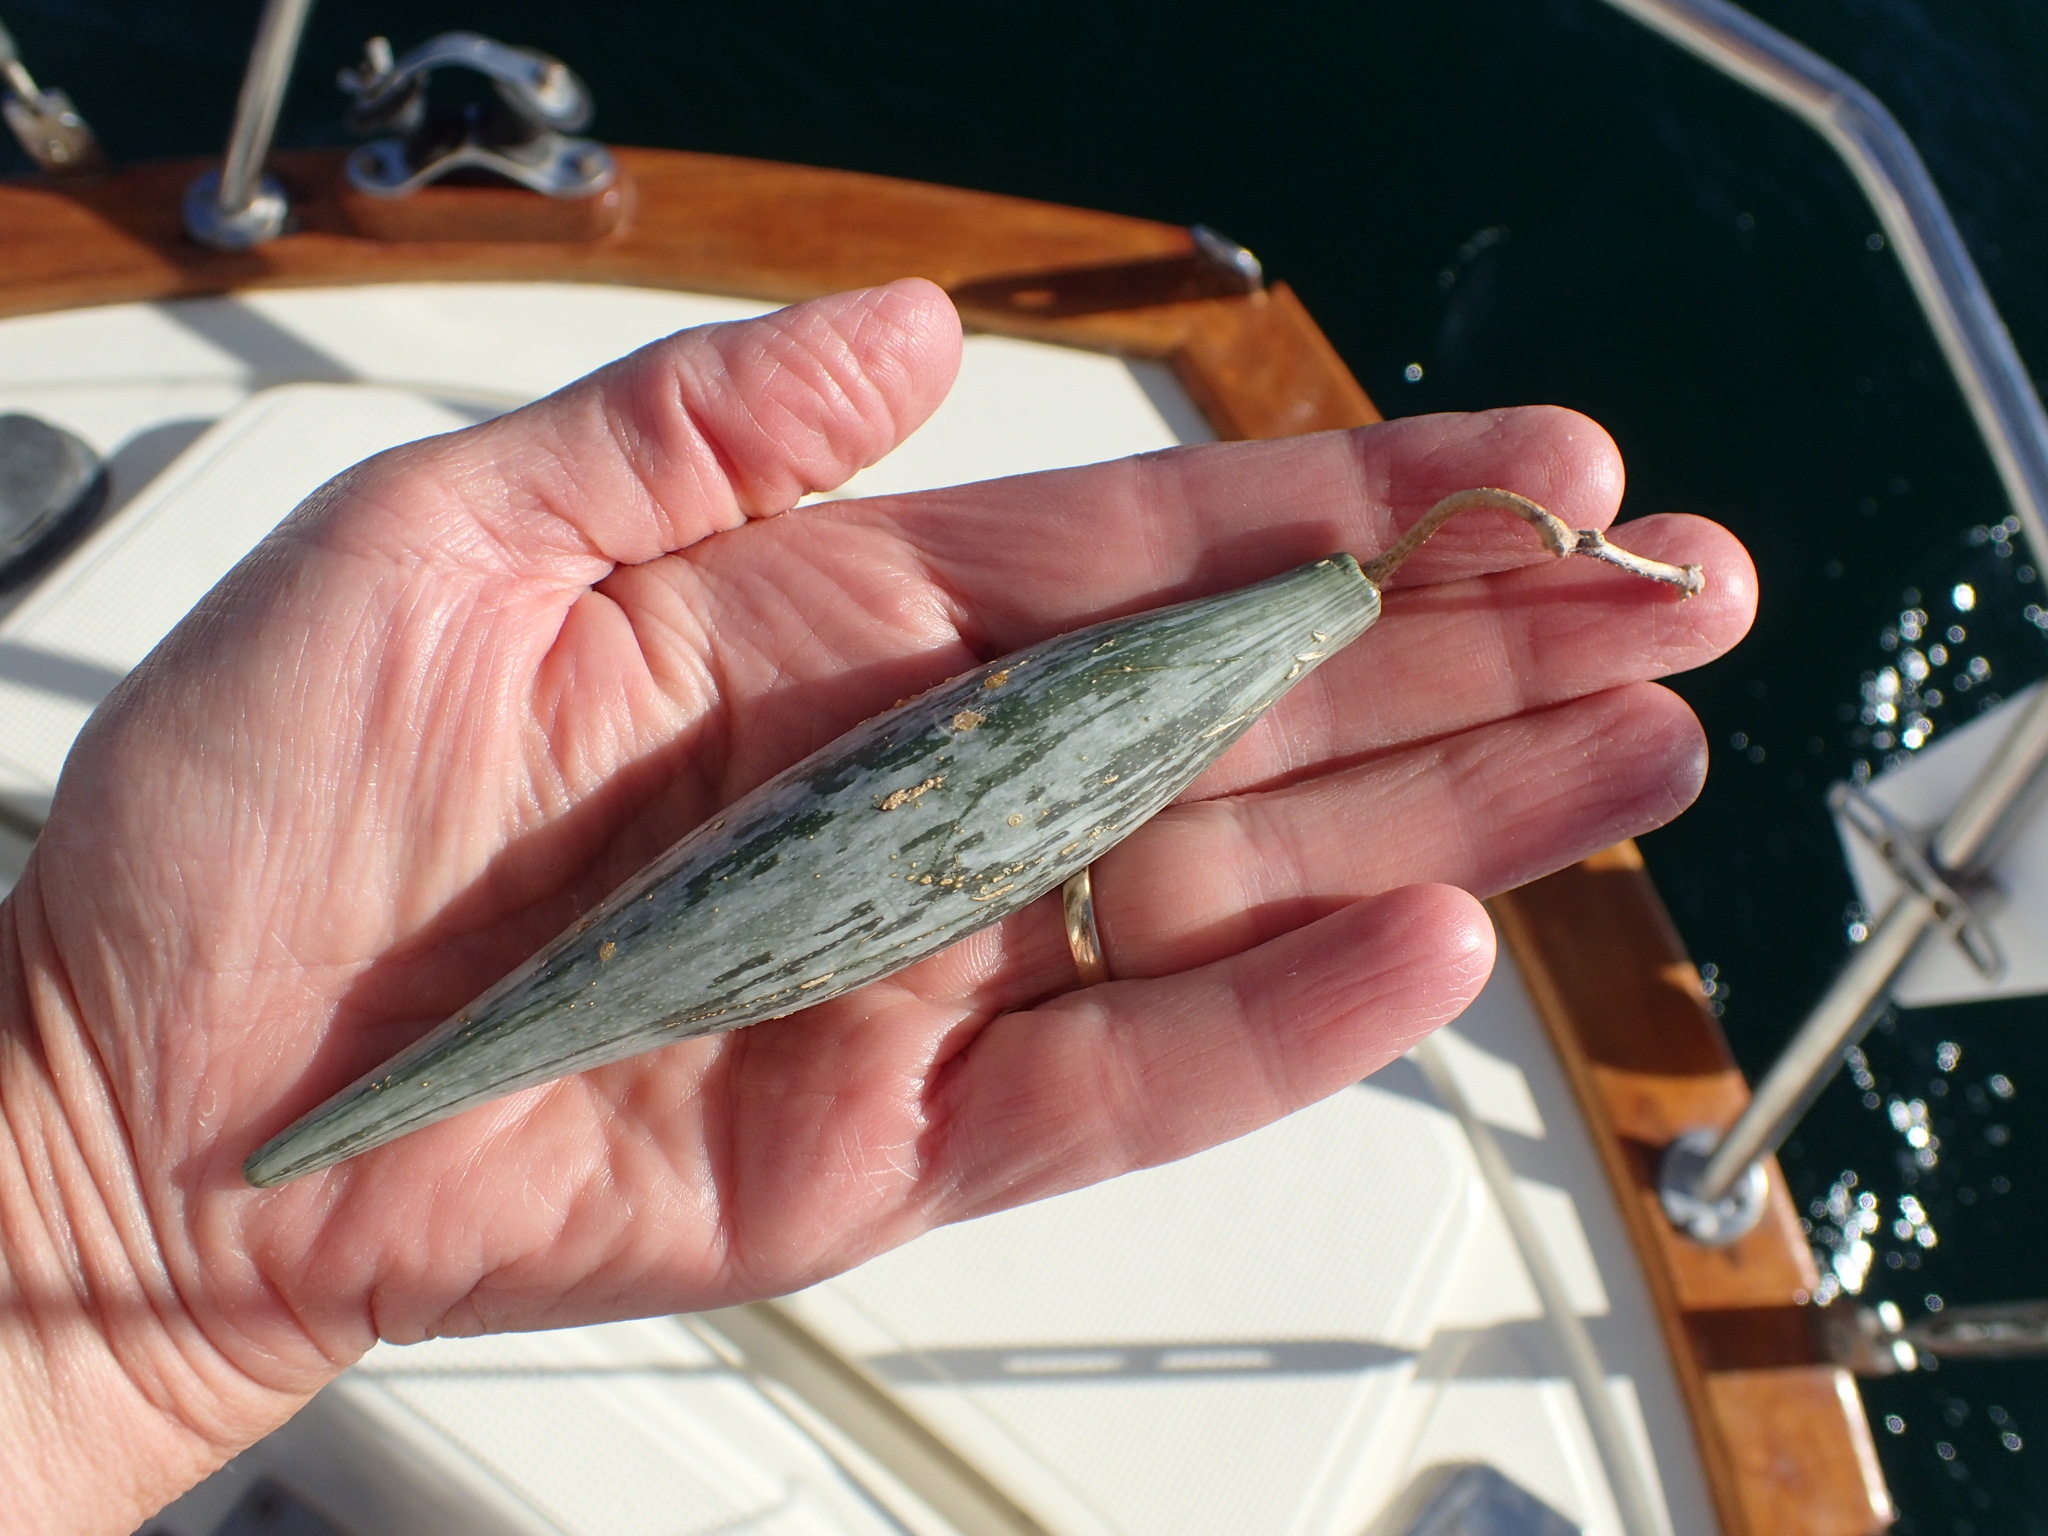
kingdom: Plantae
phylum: Tracheophyta
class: Magnoliopsida
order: Gentianales
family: Apocynaceae
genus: Polystemma
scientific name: Polystemma cordifolium
